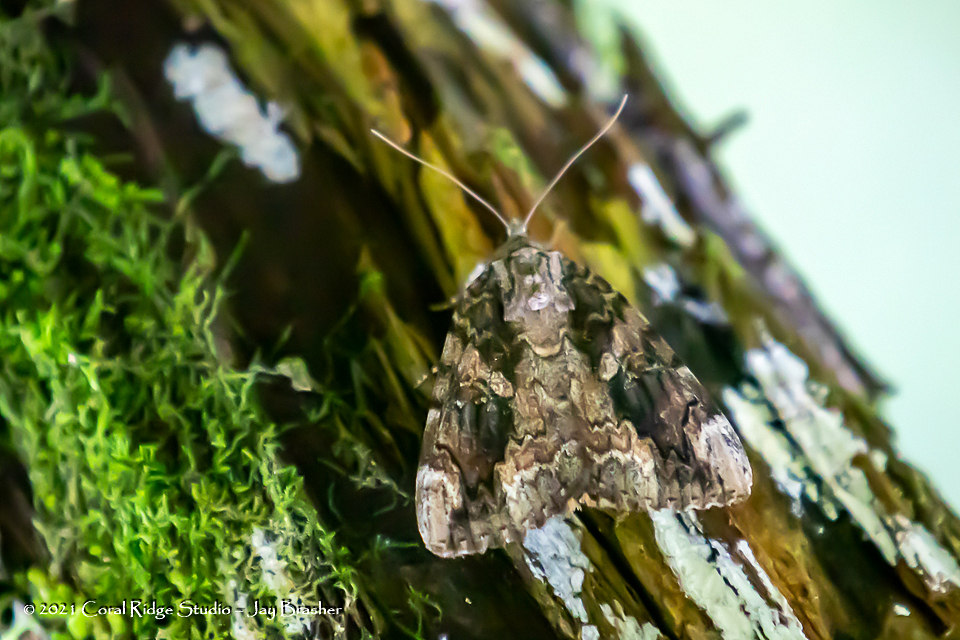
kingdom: Animalia
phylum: Arthropoda
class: Insecta
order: Lepidoptera
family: Erebidae
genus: Catocala
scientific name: Catocala innubens
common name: Betrothed underwing
